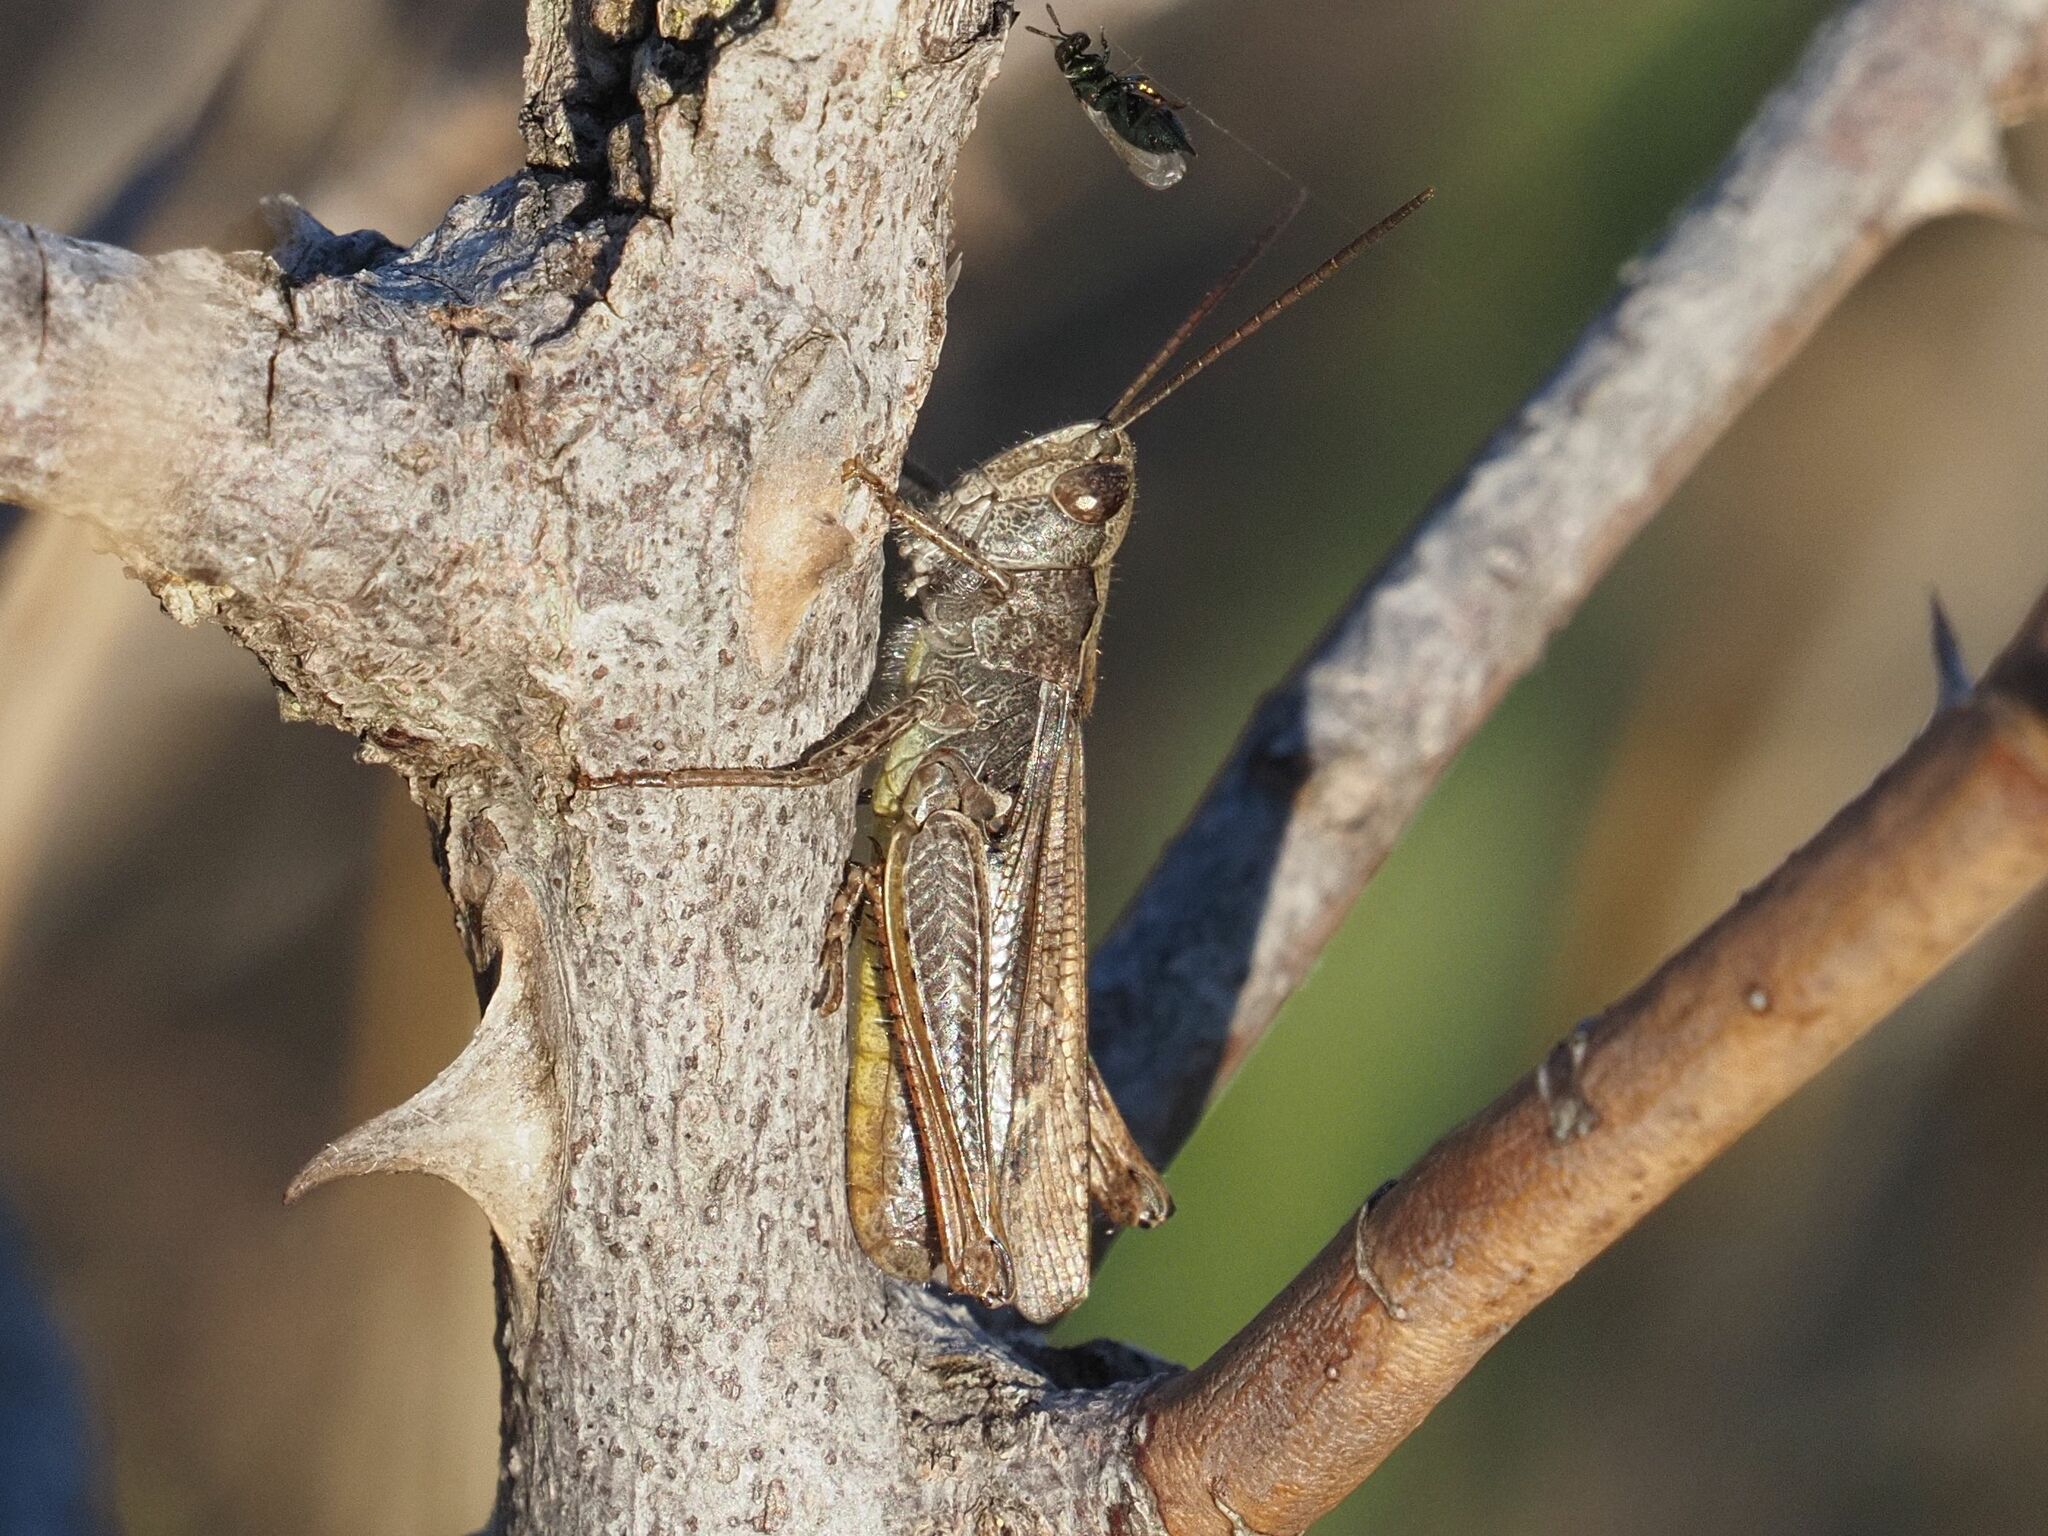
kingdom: Animalia
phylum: Arthropoda
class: Insecta
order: Orthoptera
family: Acrididae
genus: Chorthippus
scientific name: Chorthippus biguttulus
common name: Bow-winged grasshopper
